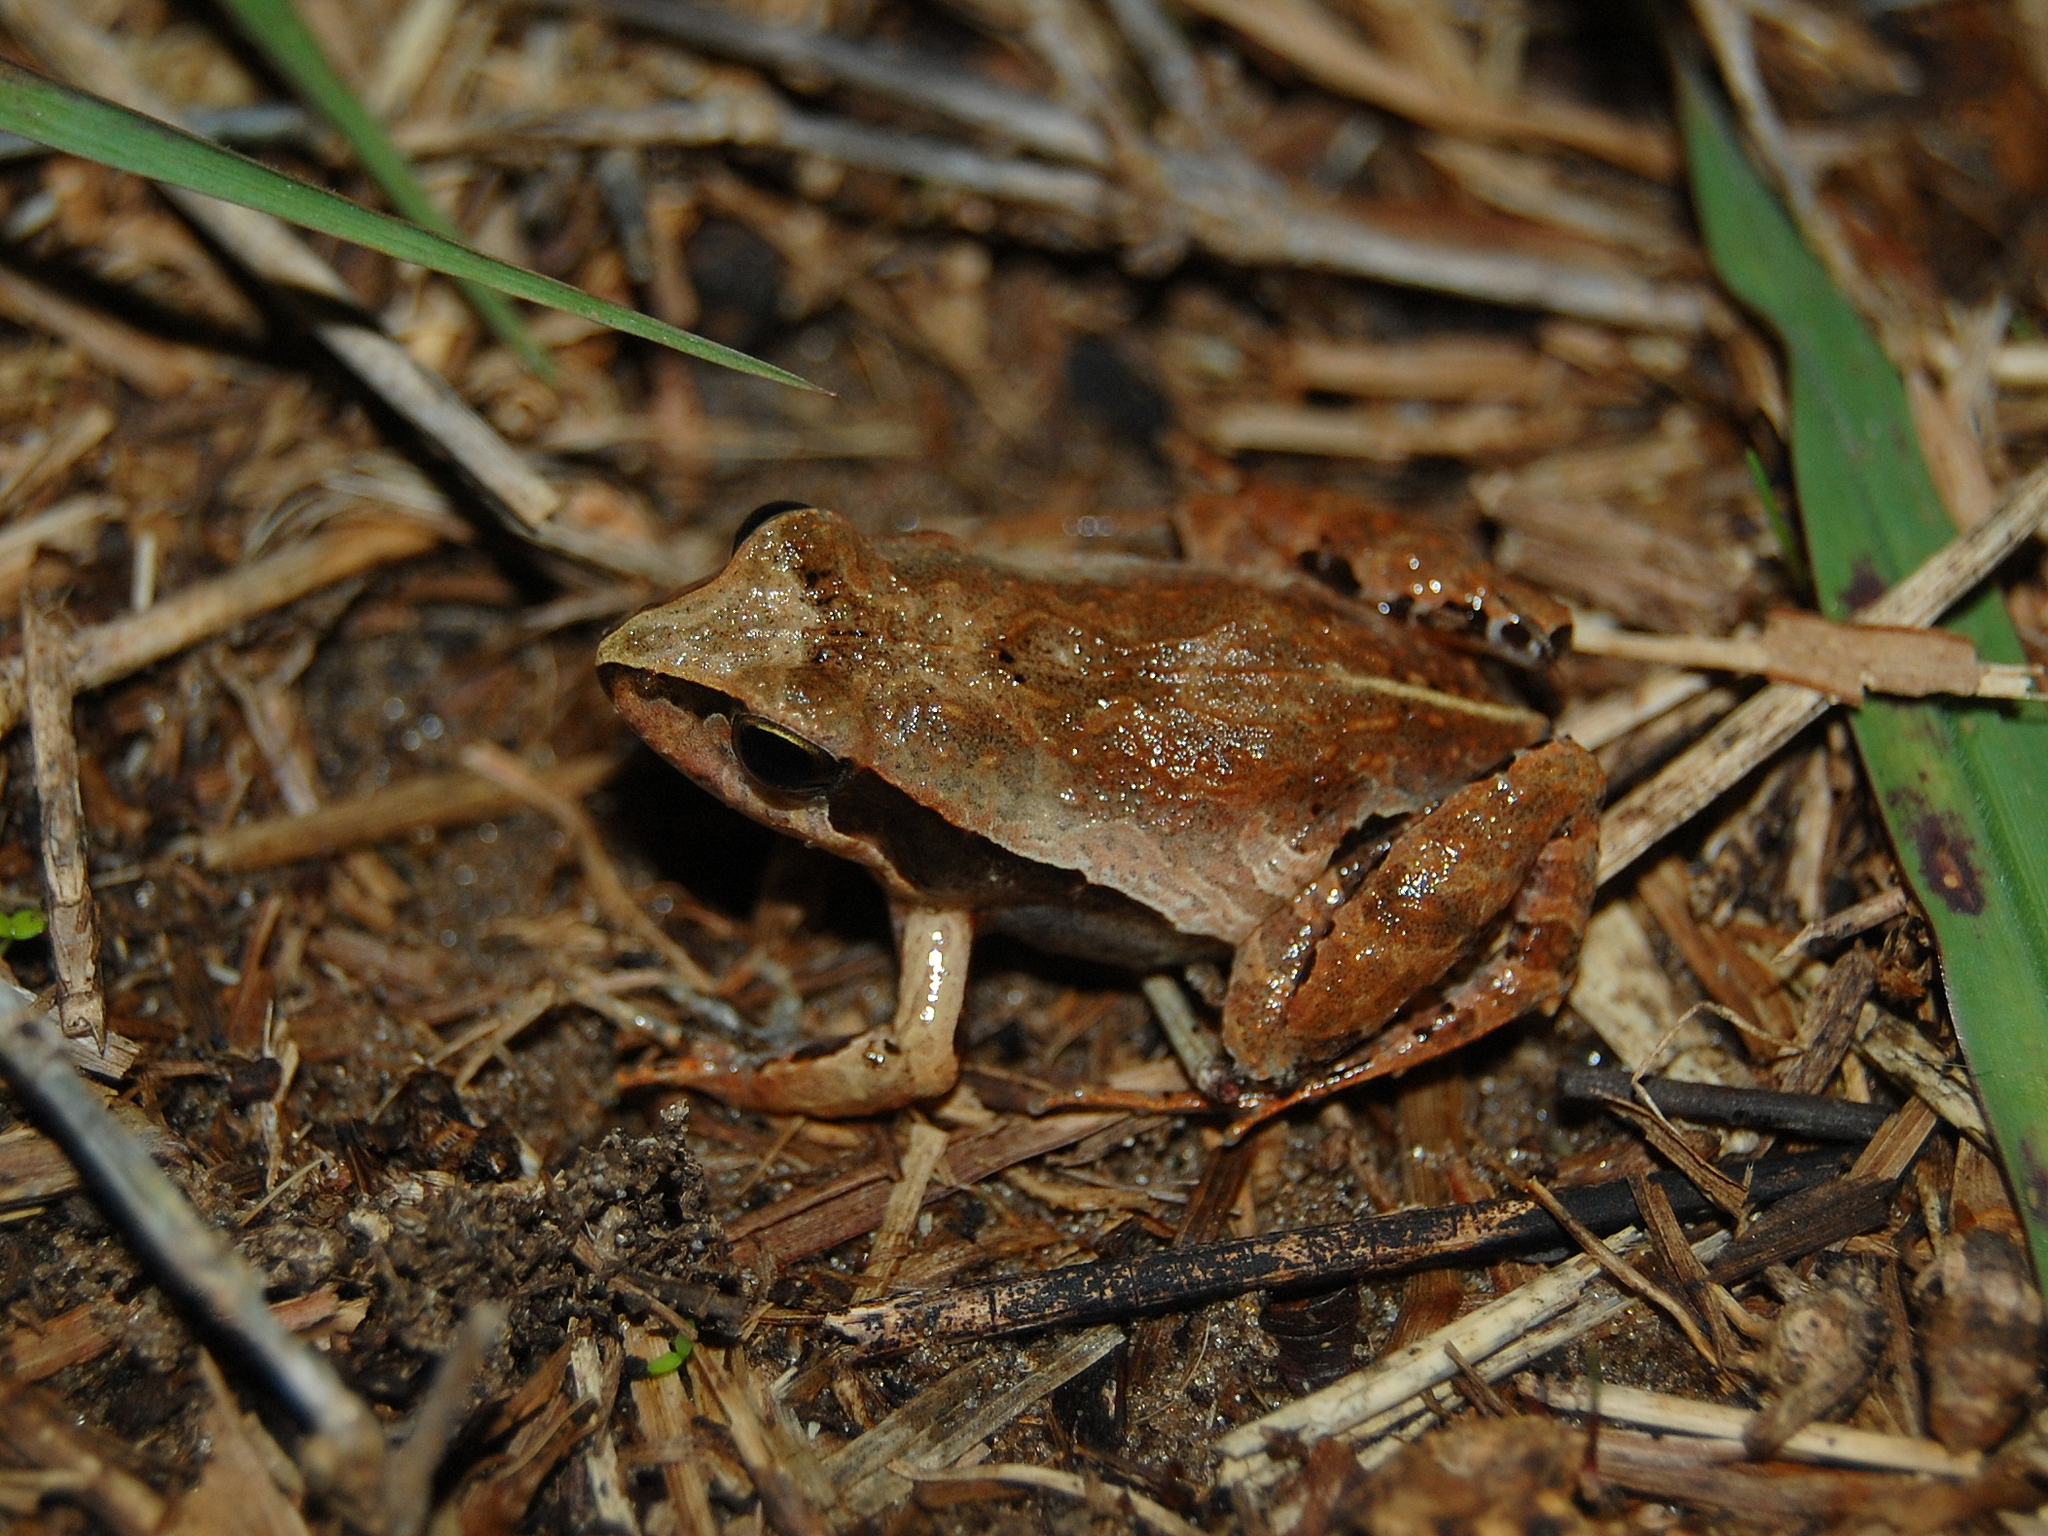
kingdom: Animalia
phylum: Chordata
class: Amphibia
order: Anura
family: Leptodactylidae
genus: Physalaemus
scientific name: Physalaemus gracilis
